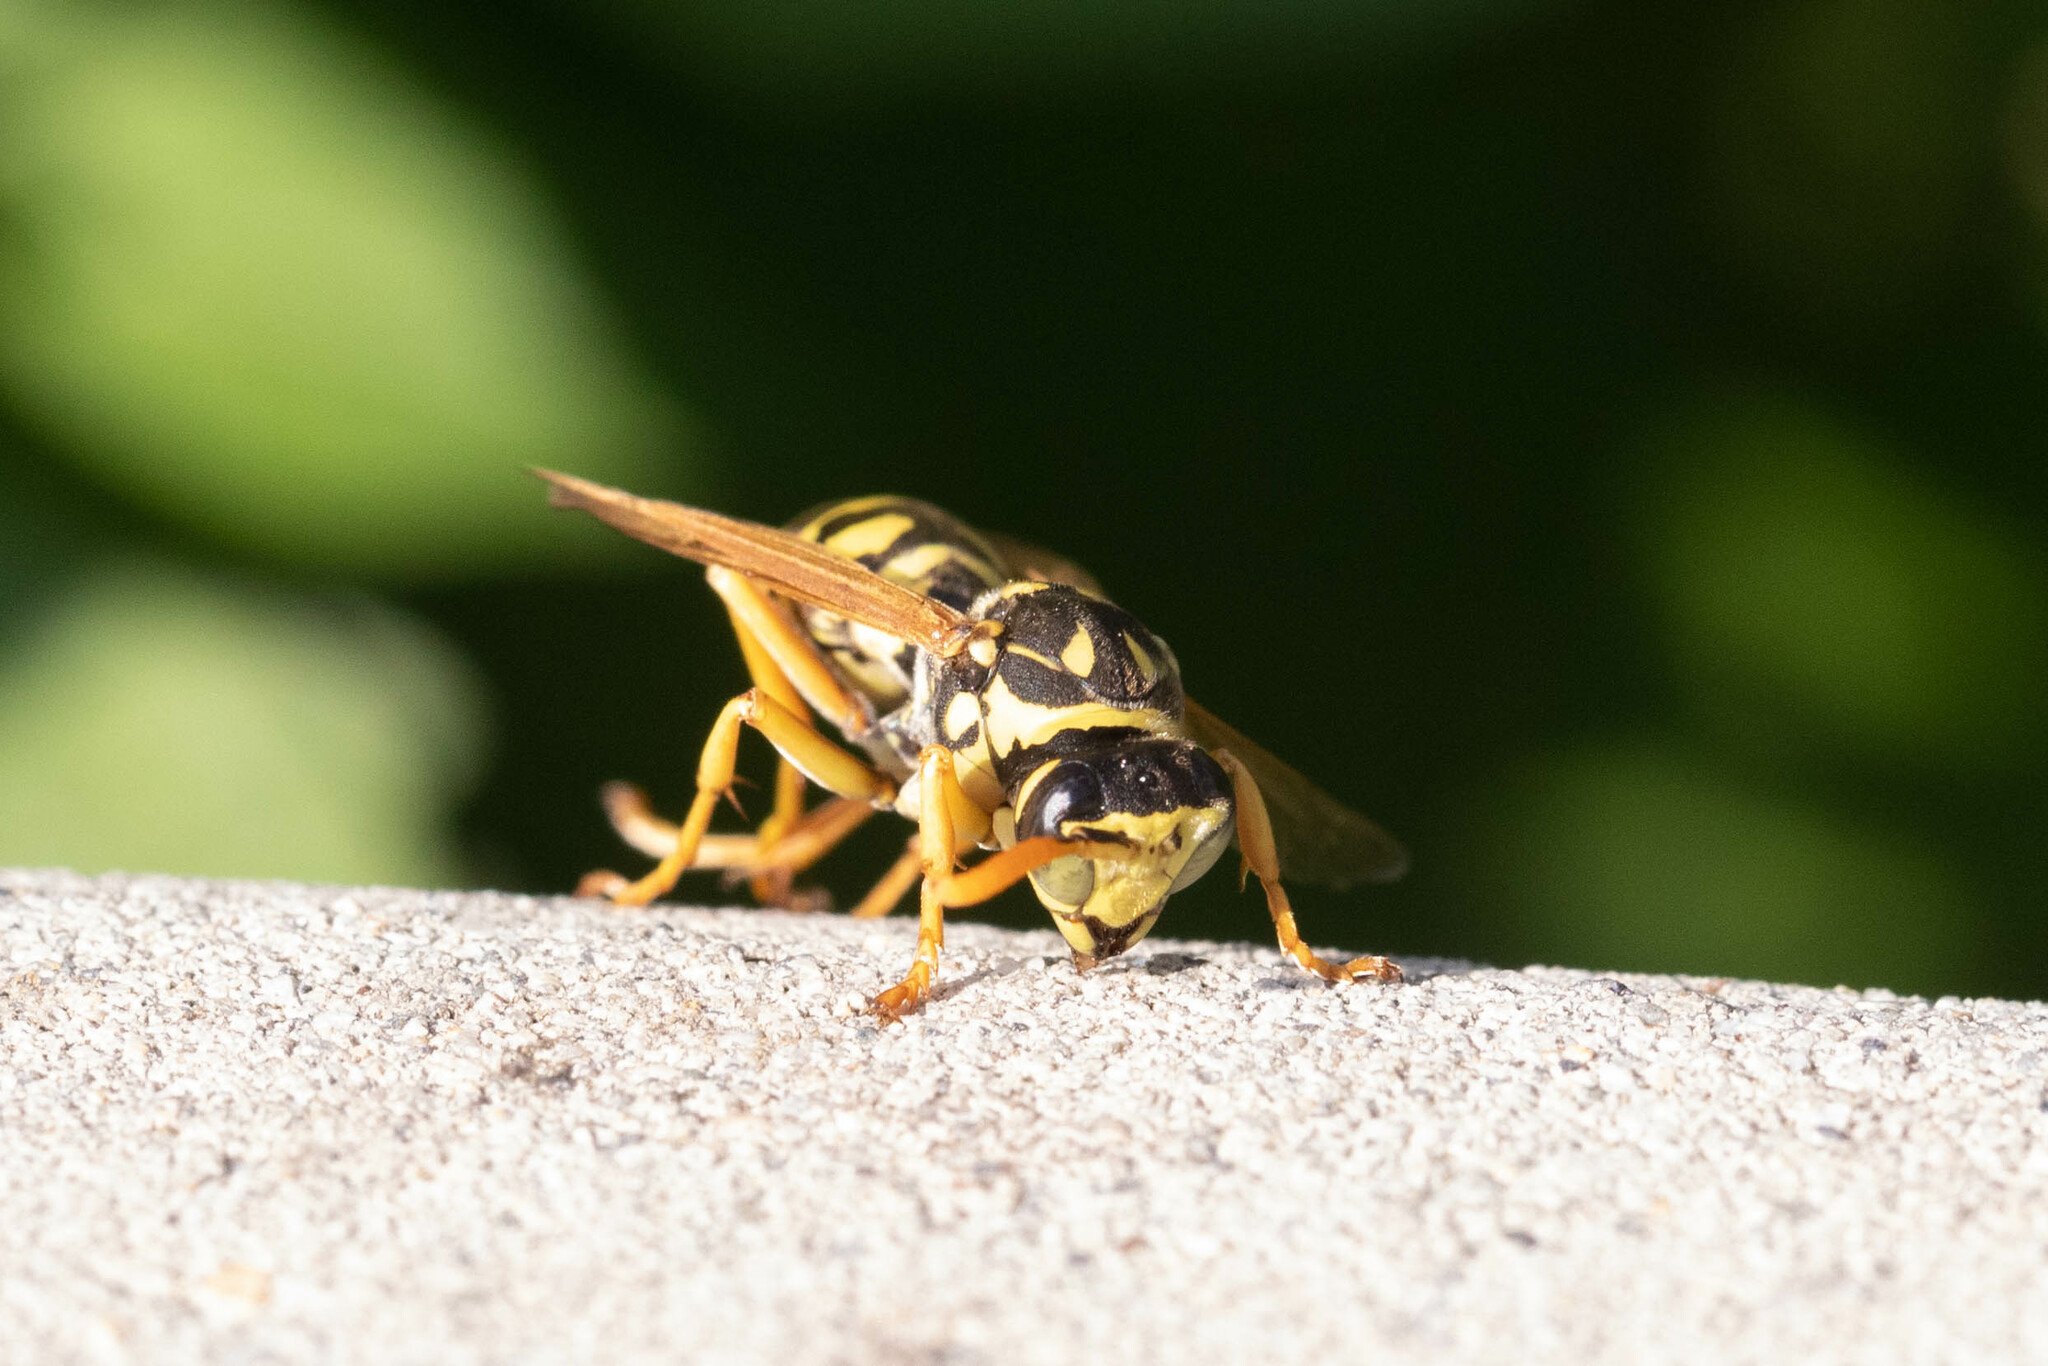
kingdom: Animalia
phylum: Arthropoda
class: Insecta
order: Hymenoptera
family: Eumenidae
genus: Polistes
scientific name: Polistes dominula
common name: Paper wasp
